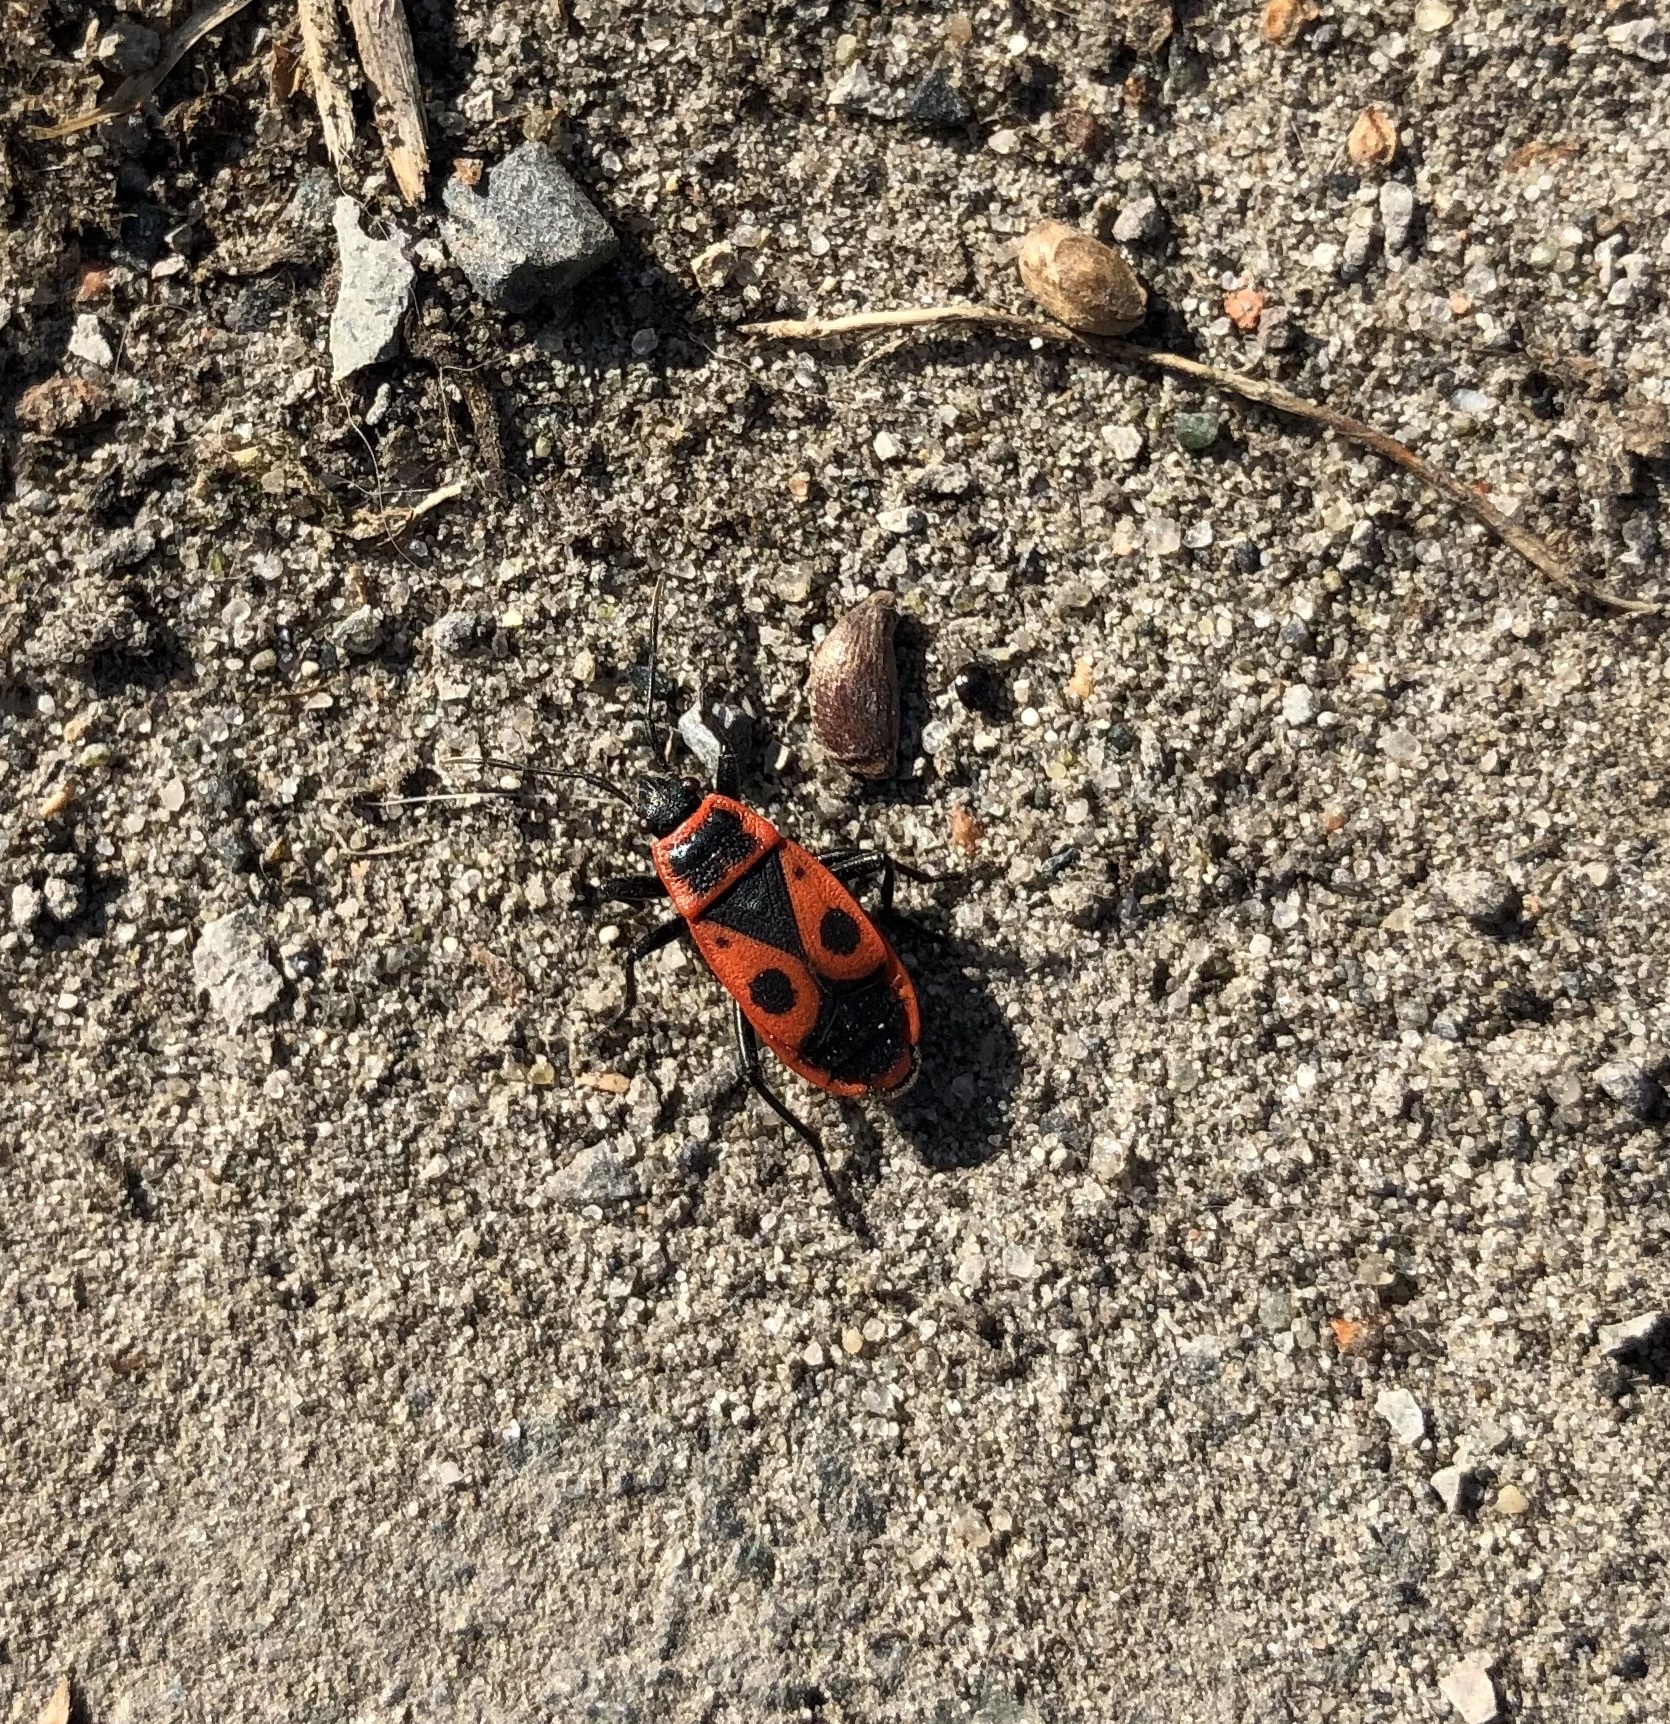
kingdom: Animalia
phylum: Arthropoda
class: Insecta
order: Hemiptera
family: Pyrrhocoridae
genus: Pyrrhocoris
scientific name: Pyrrhocoris apterus
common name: Firebug
